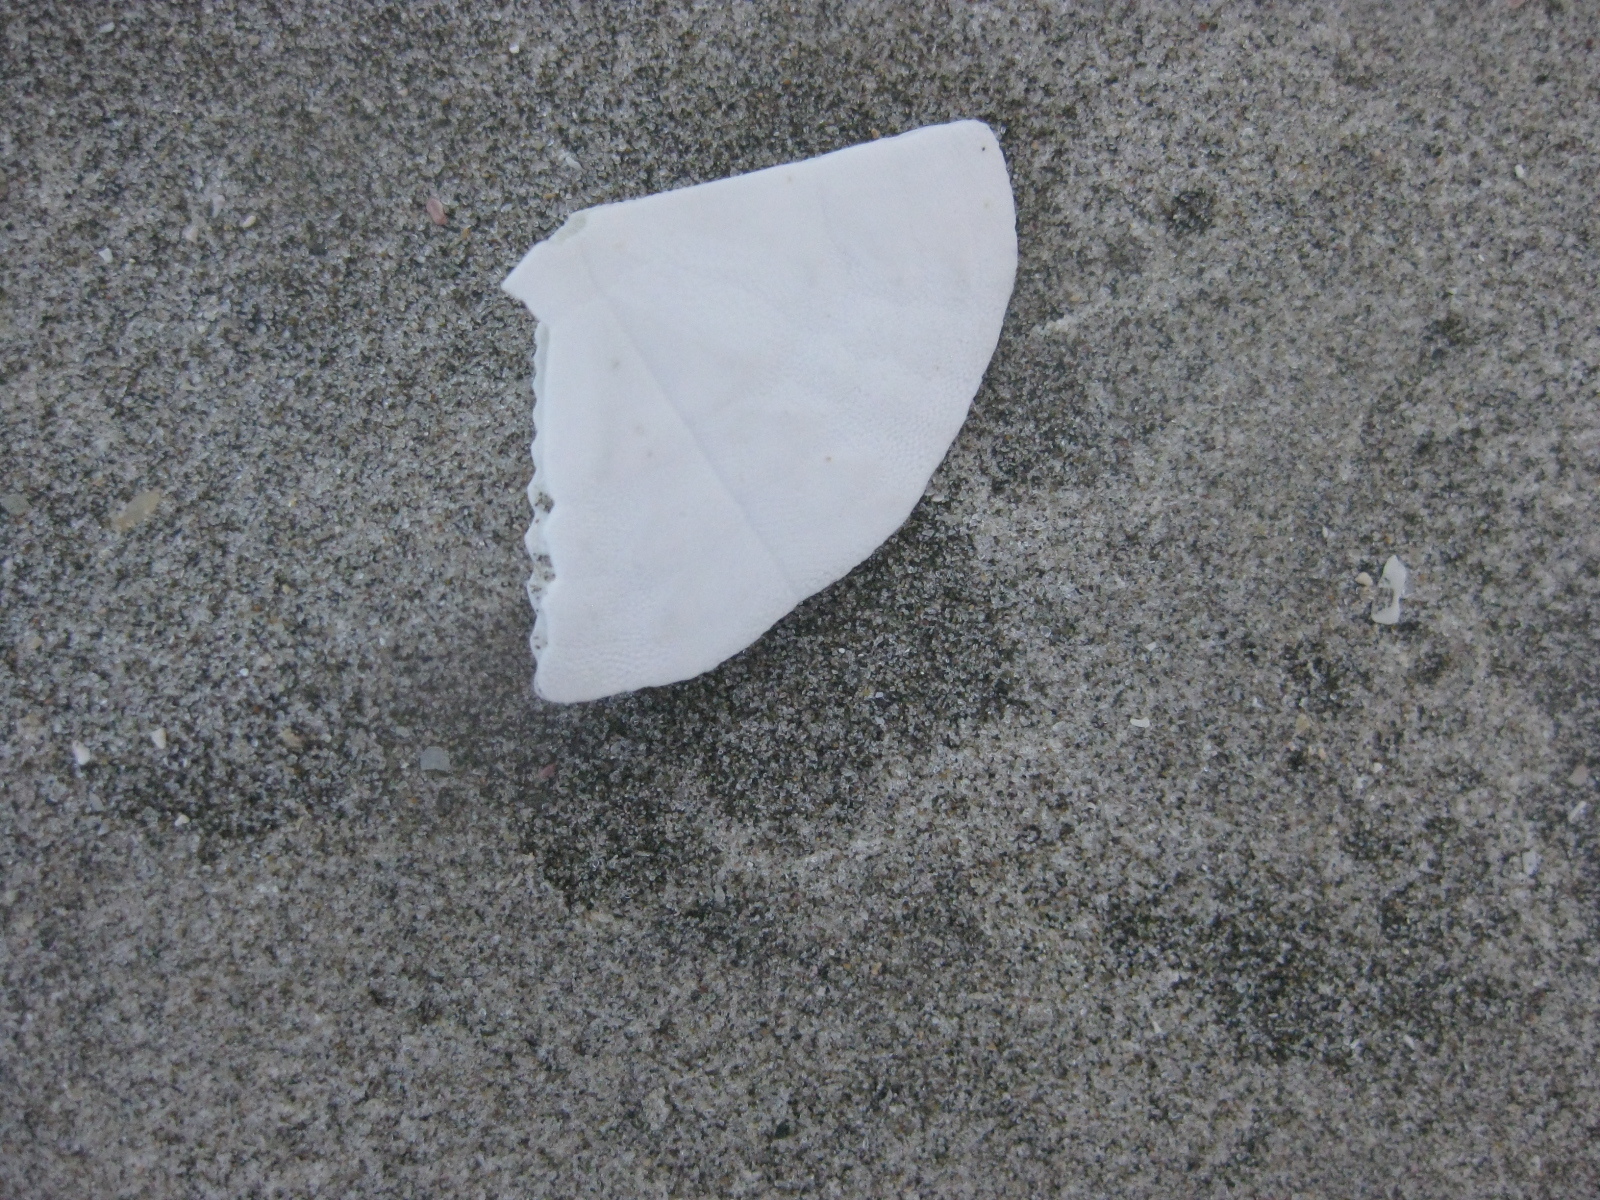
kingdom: Animalia
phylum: Echinodermata
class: Echinoidea
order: Clypeasteroida
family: Clypeasteridae
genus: Fellaster
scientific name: Fellaster zelandiae
